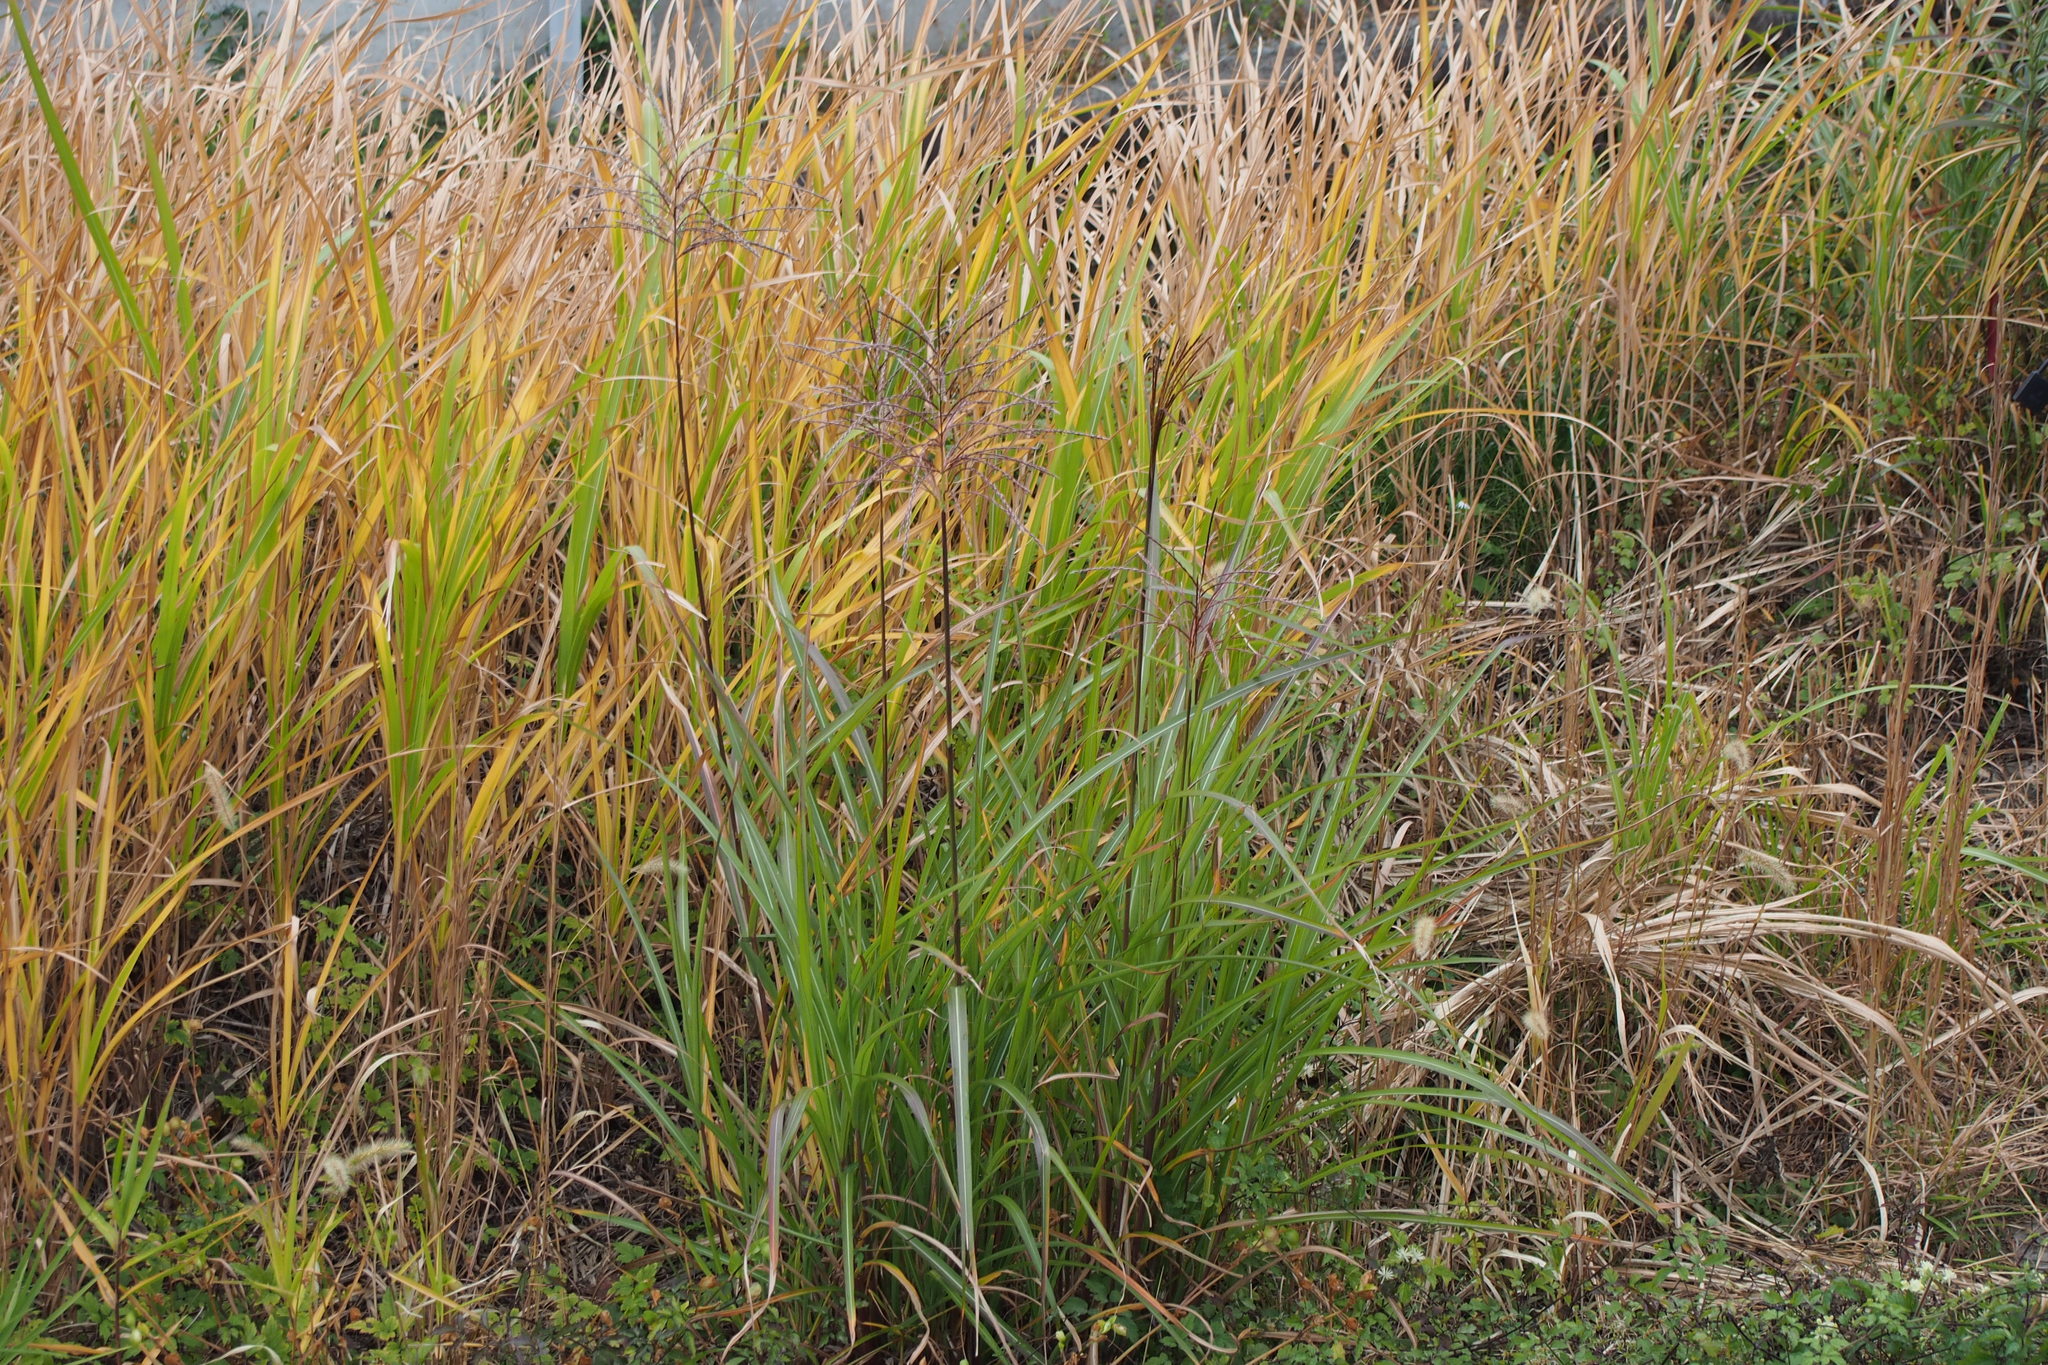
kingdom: Plantae
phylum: Tracheophyta
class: Liliopsida
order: Poales
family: Poaceae
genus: Miscanthus
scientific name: Miscanthus sacchariflorus
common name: Amur silver grass
